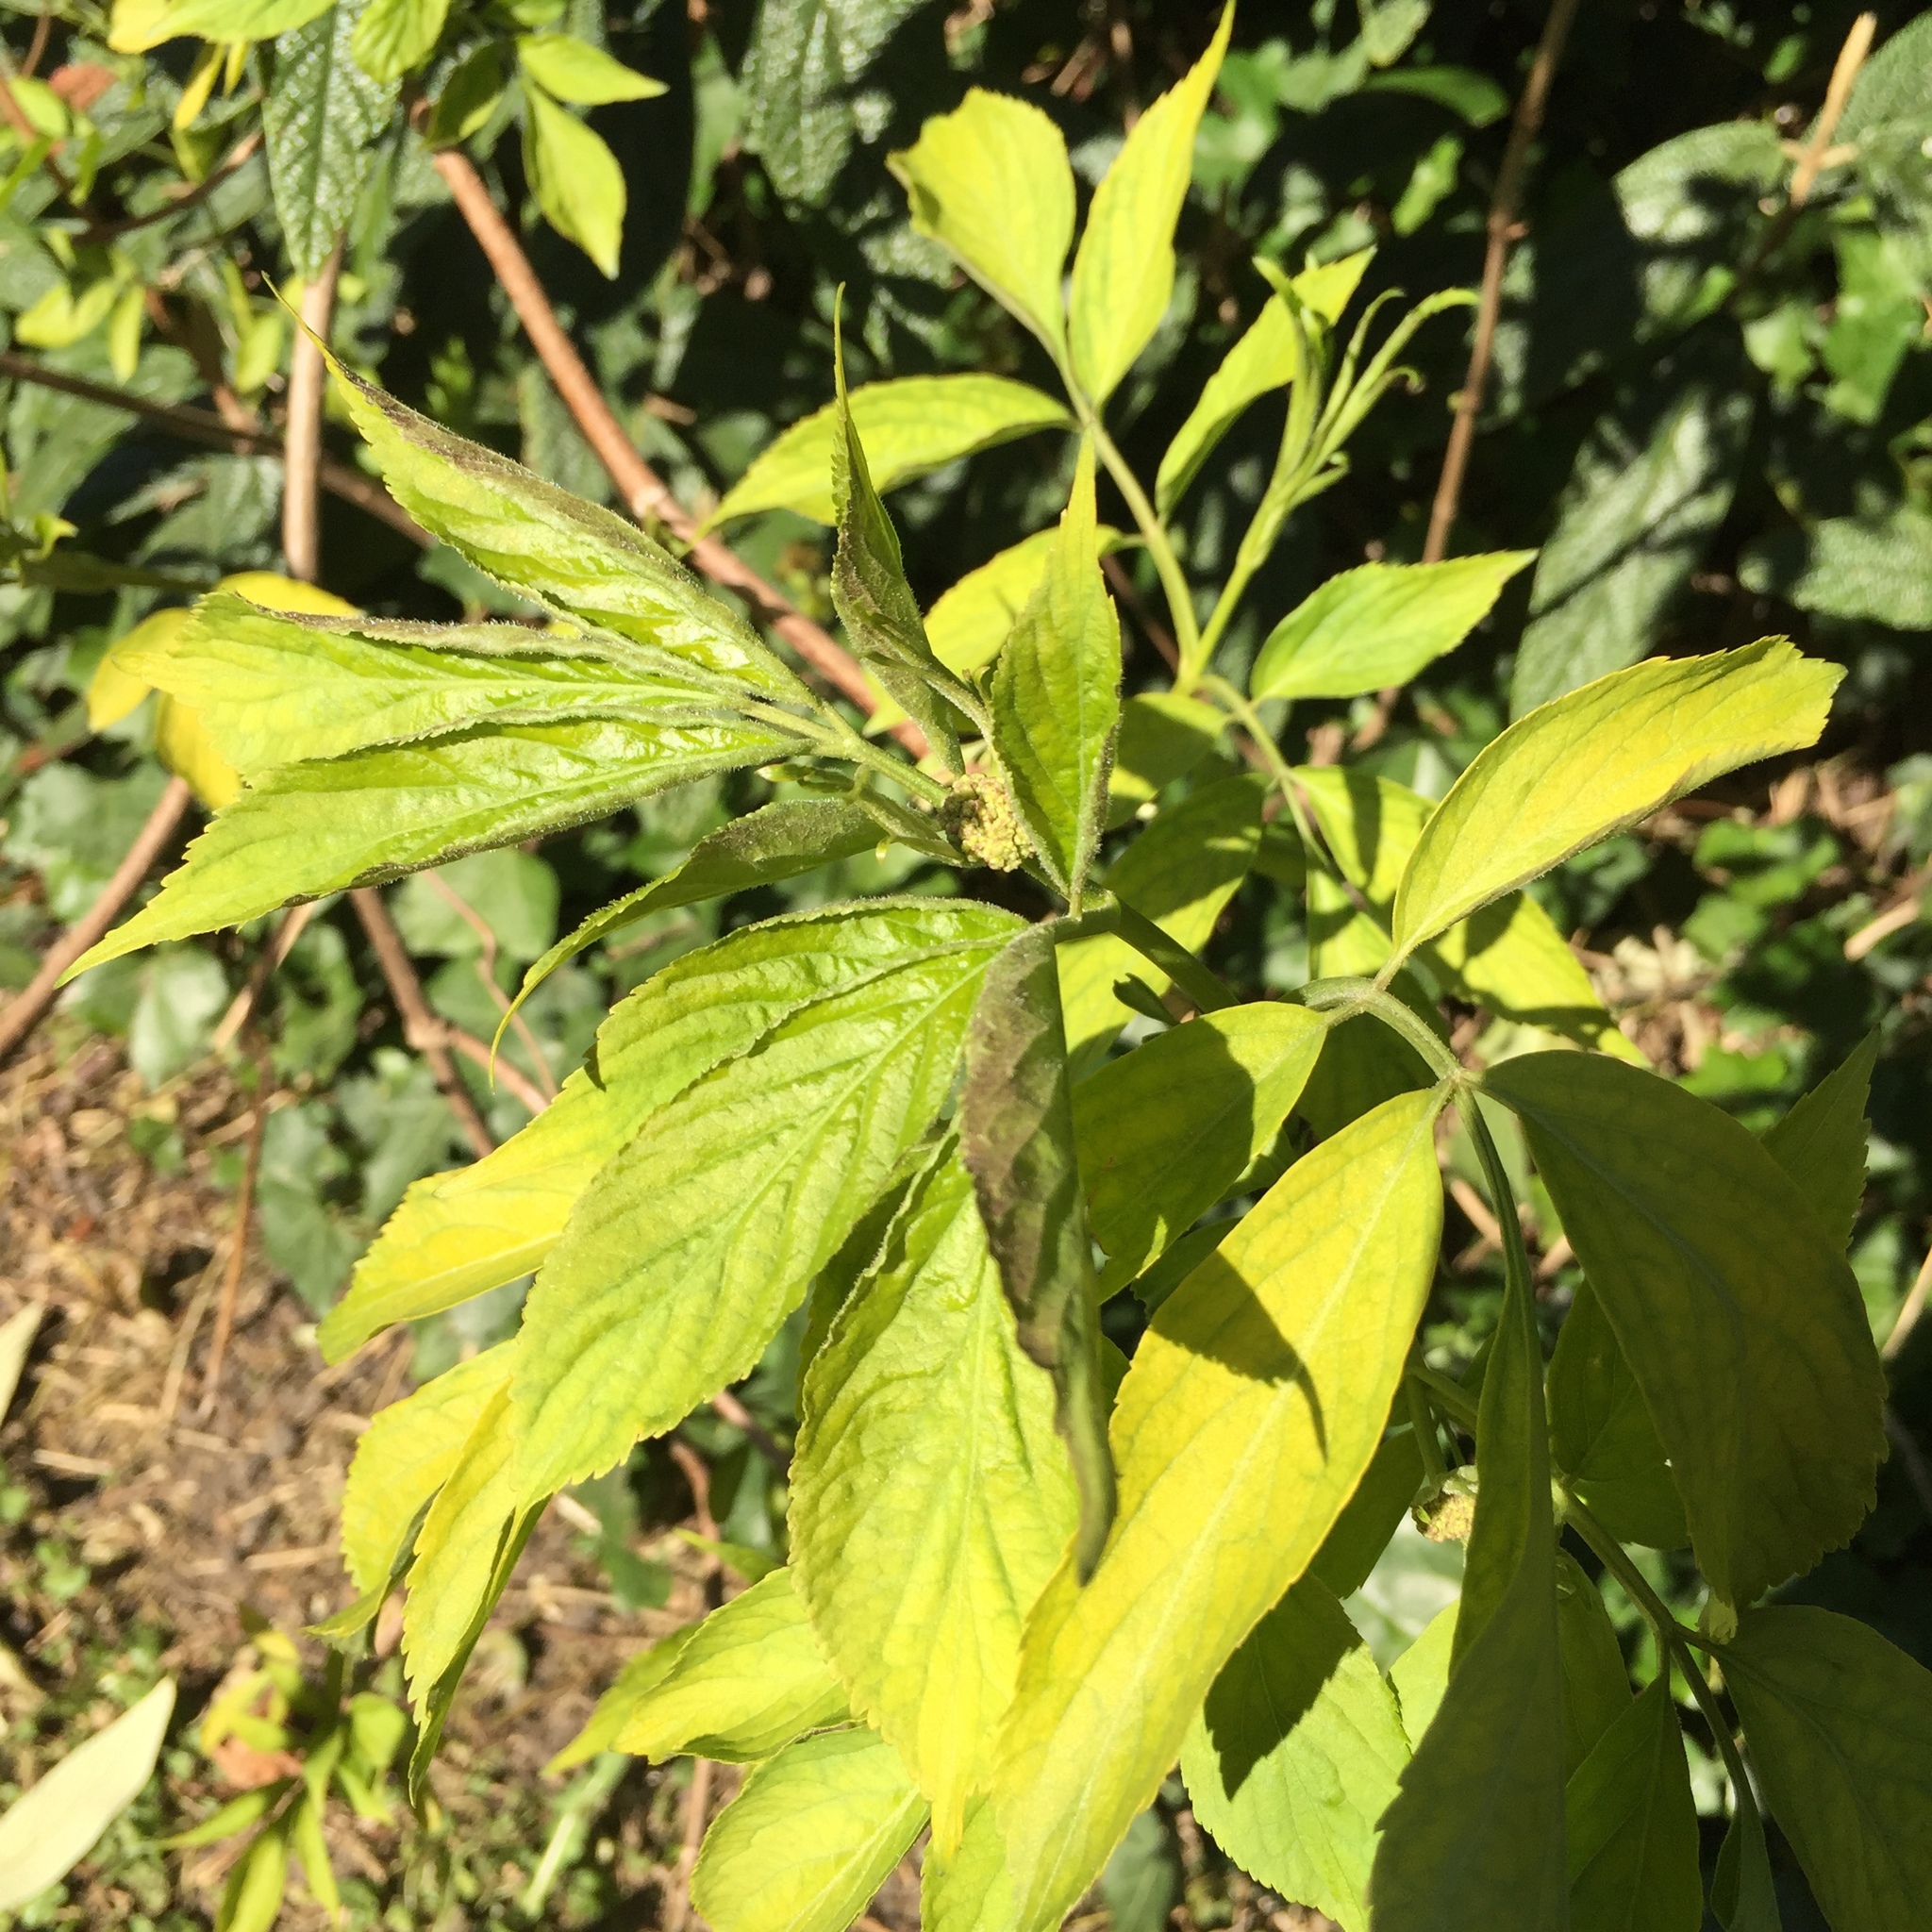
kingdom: Plantae
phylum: Tracheophyta
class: Magnoliopsida
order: Dipsacales
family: Viburnaceae
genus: Sambucus
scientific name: Sambucus nigra
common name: Elder
